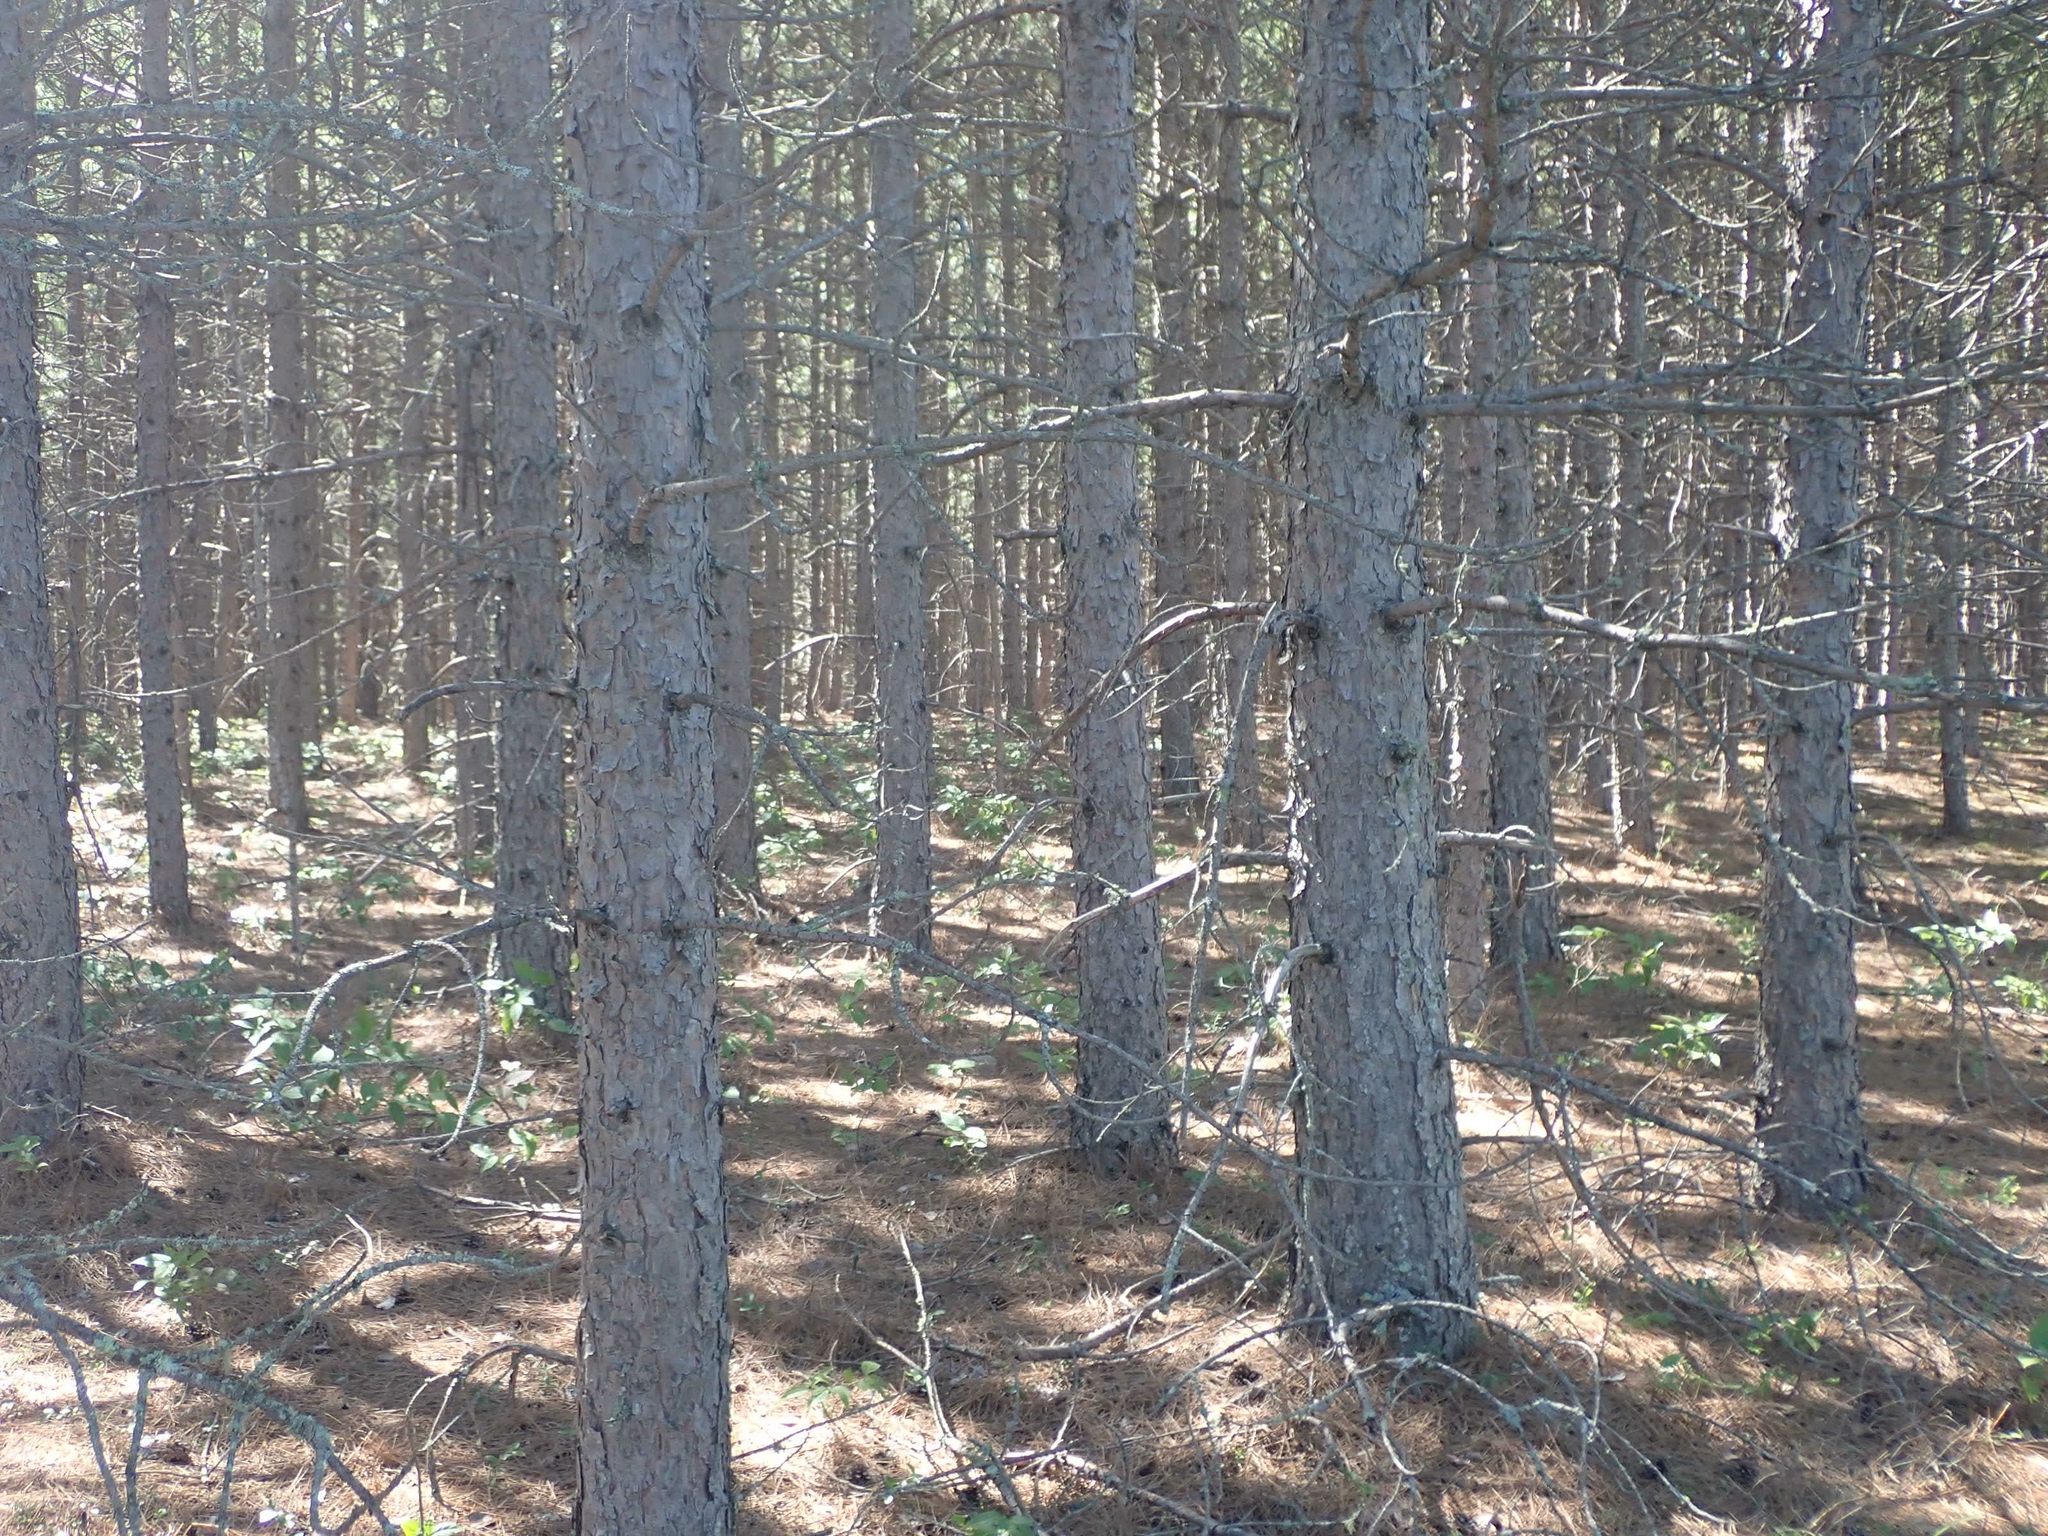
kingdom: Plantae
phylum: Tracheophyta
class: Pinopsida
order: Pinales
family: Pinaceae
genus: Pinus
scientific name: Pinus resinosa
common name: Norway pine
